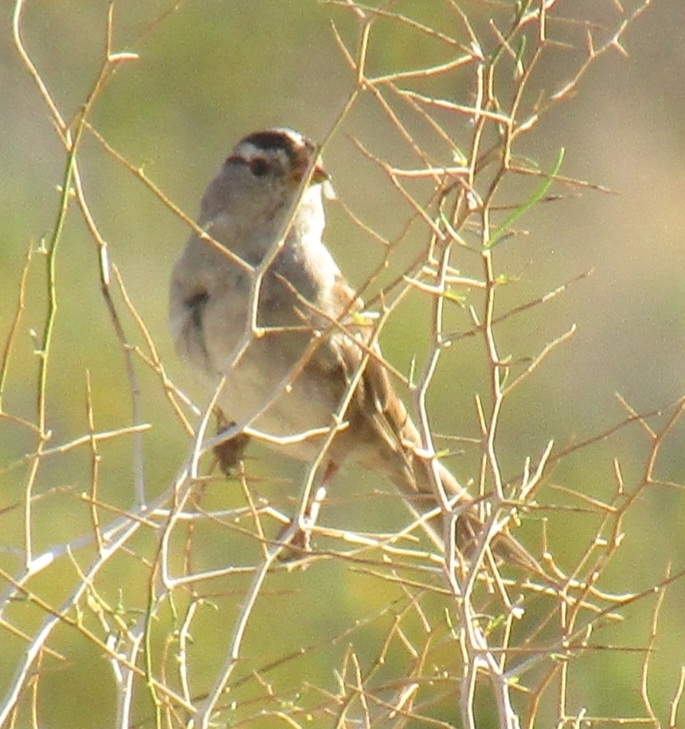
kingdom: Animalia
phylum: Chordata
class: Aves
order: Passeriformes
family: Passerellidae
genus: Zonotrichia
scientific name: Zonotrichia leucophrys
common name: White-crowned sparrow
